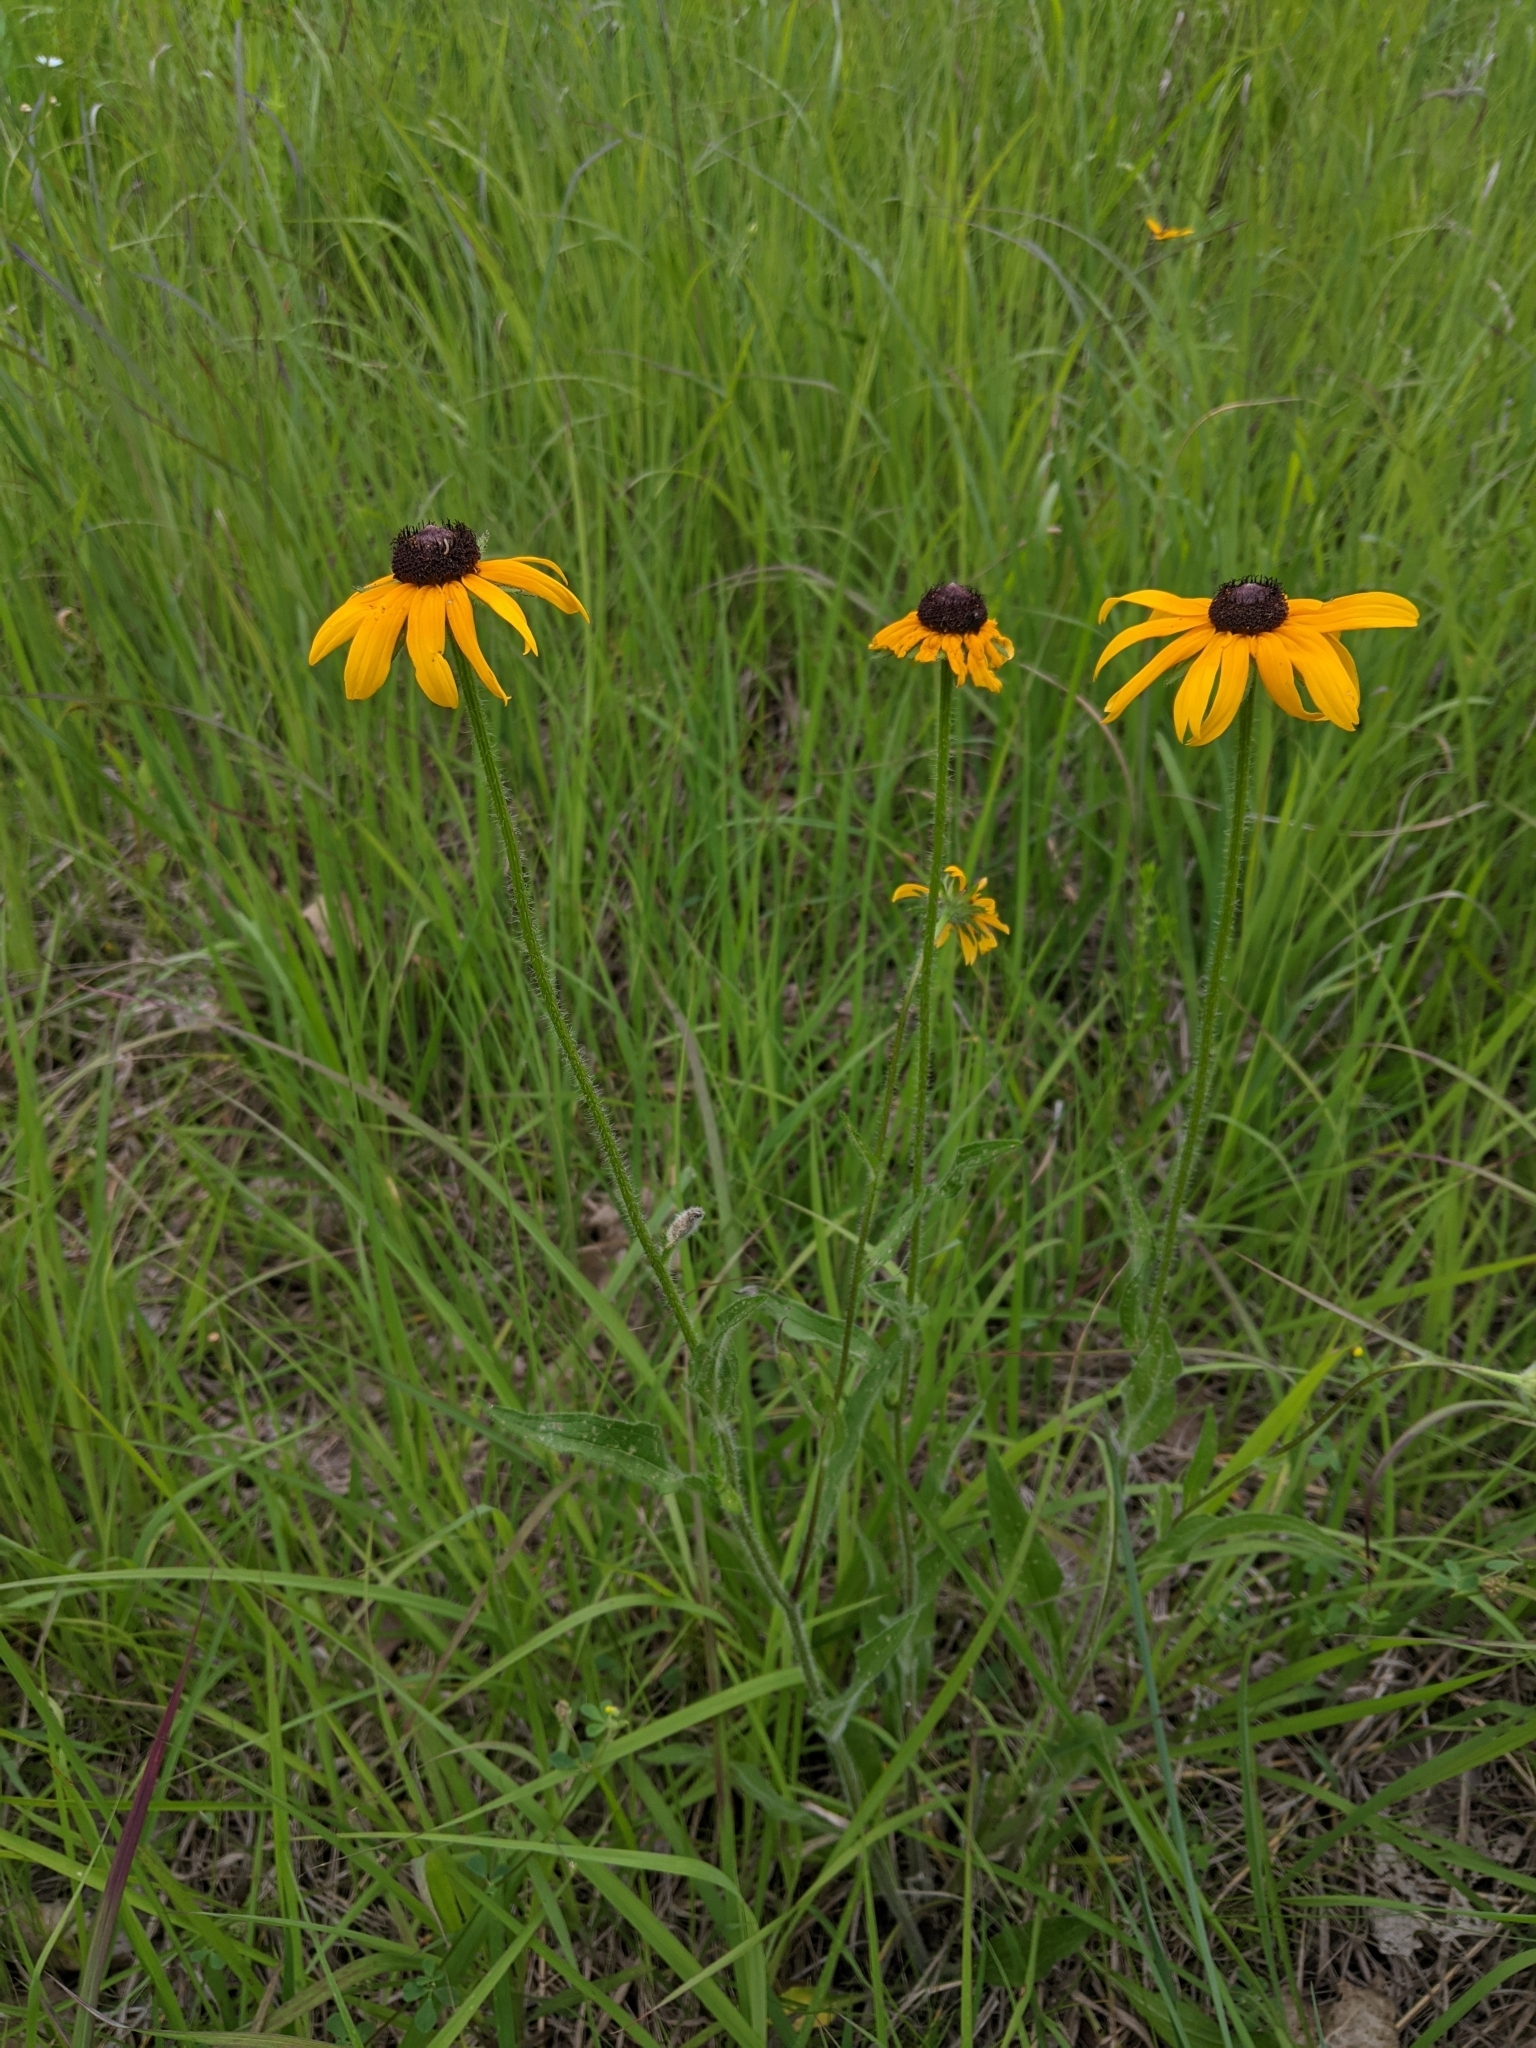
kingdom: Plantae
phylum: Tracheophyta
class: Magnoliopsida
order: Asterales
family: Asteraceae
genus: Rudbeckia
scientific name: Rudbeckia hirta
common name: Black-eyed-susan
